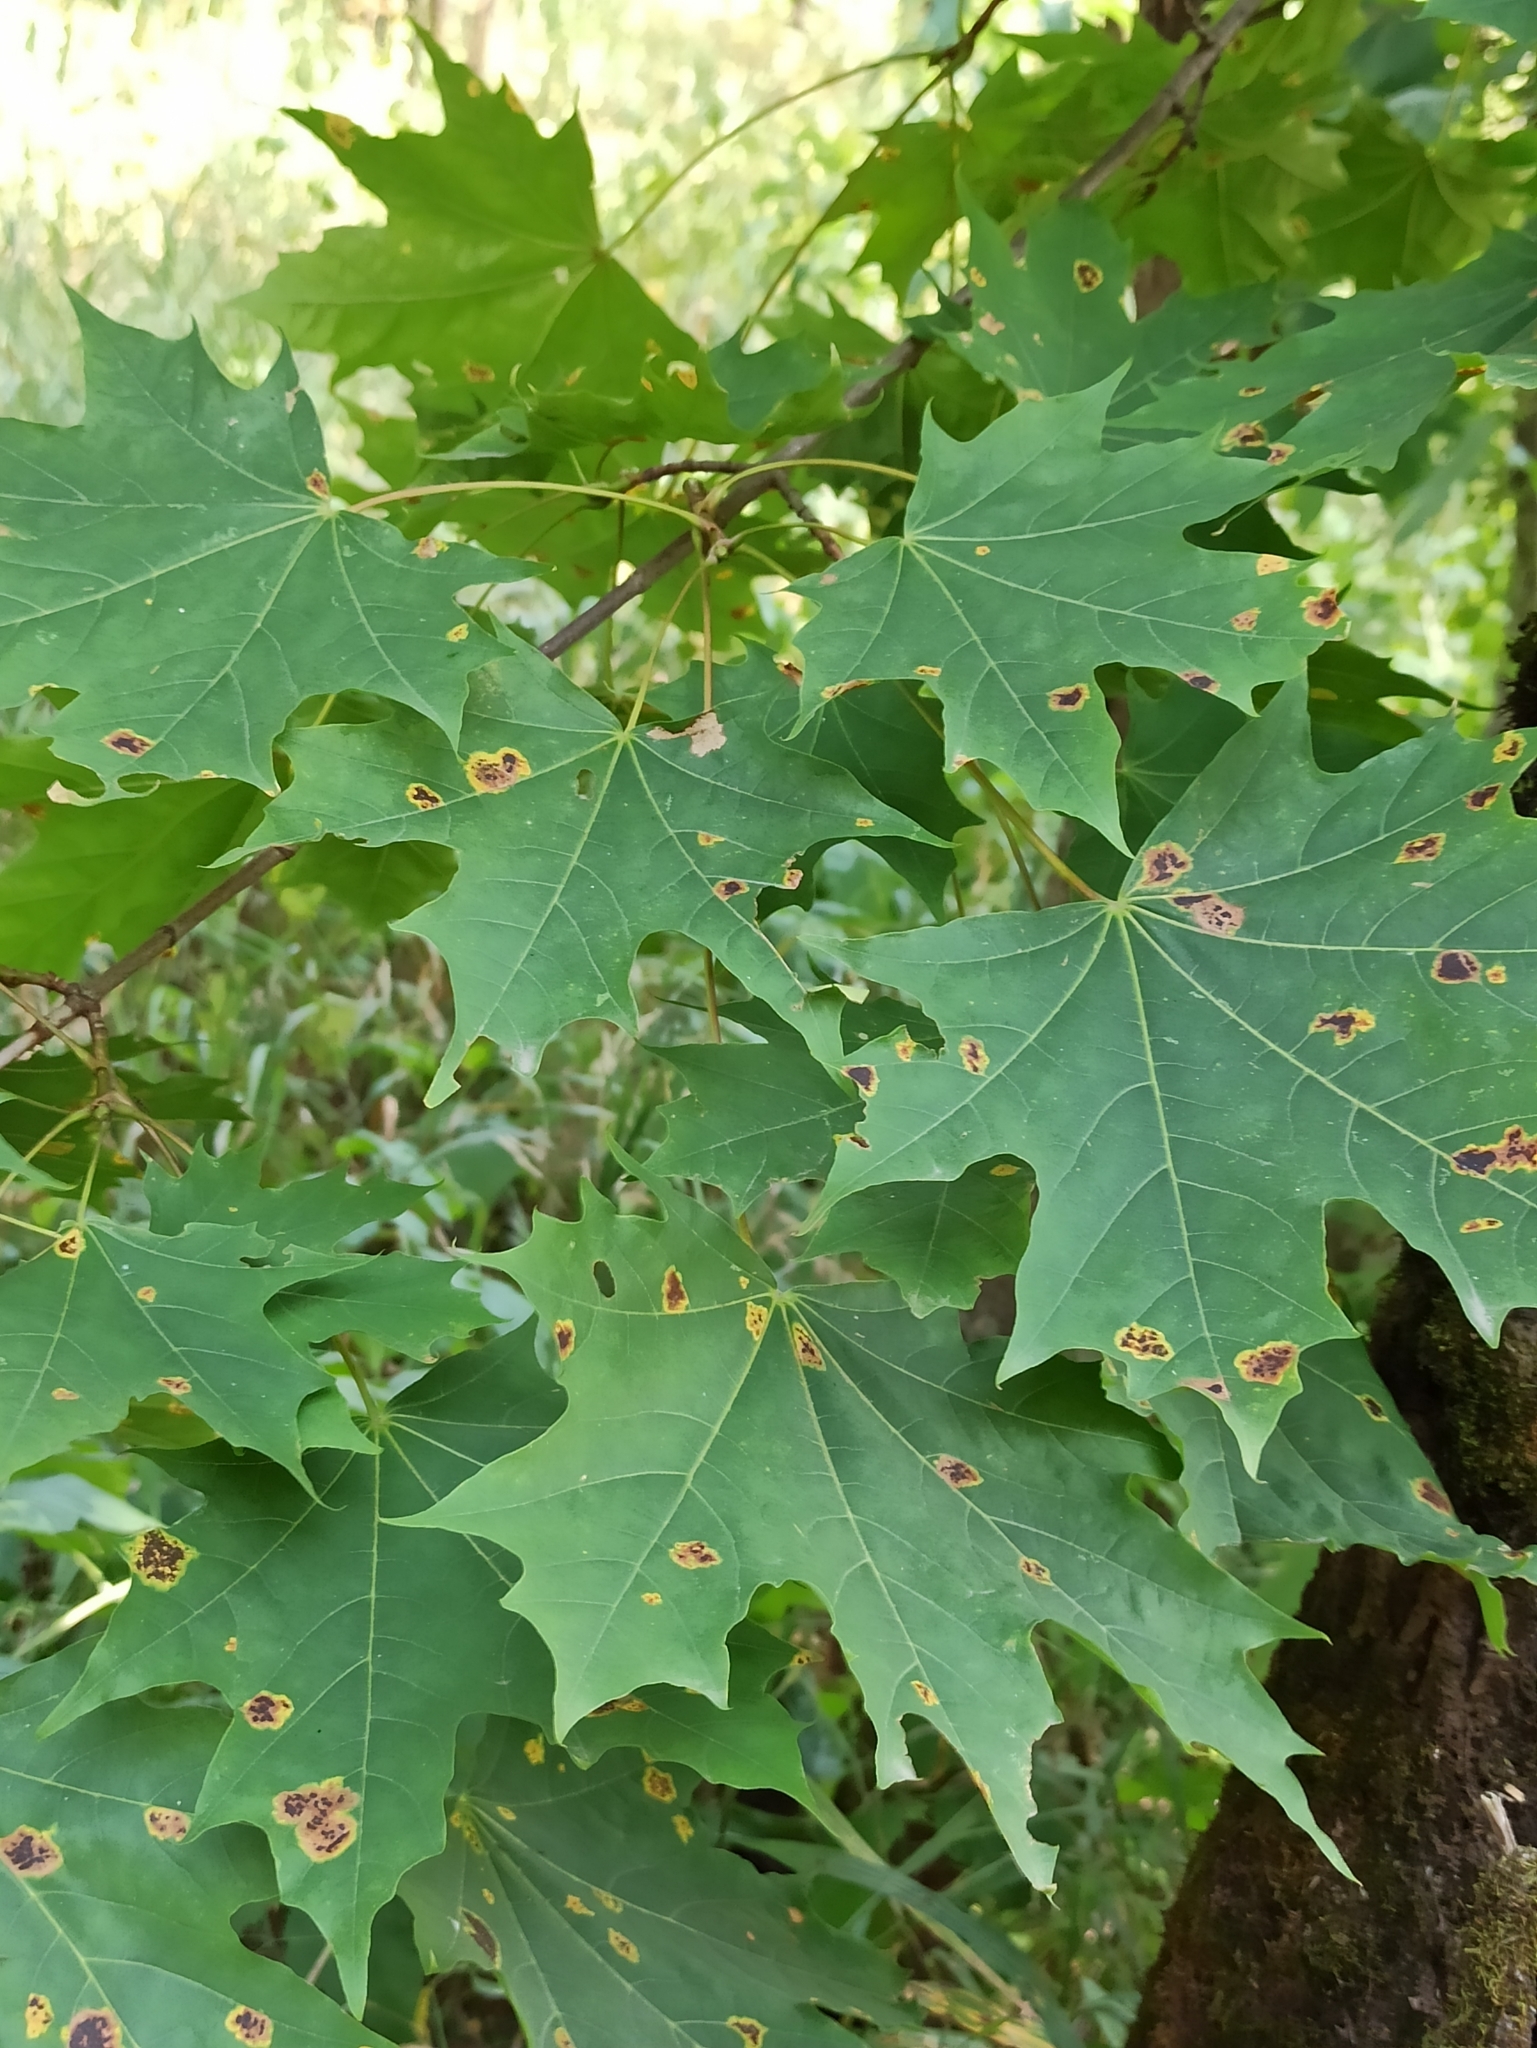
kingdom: Plantae
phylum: Tracheophyta
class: Magnoliopsida
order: Sapindales
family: Sapindaceae
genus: Acer
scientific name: Acer platanoides
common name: Norway maple
